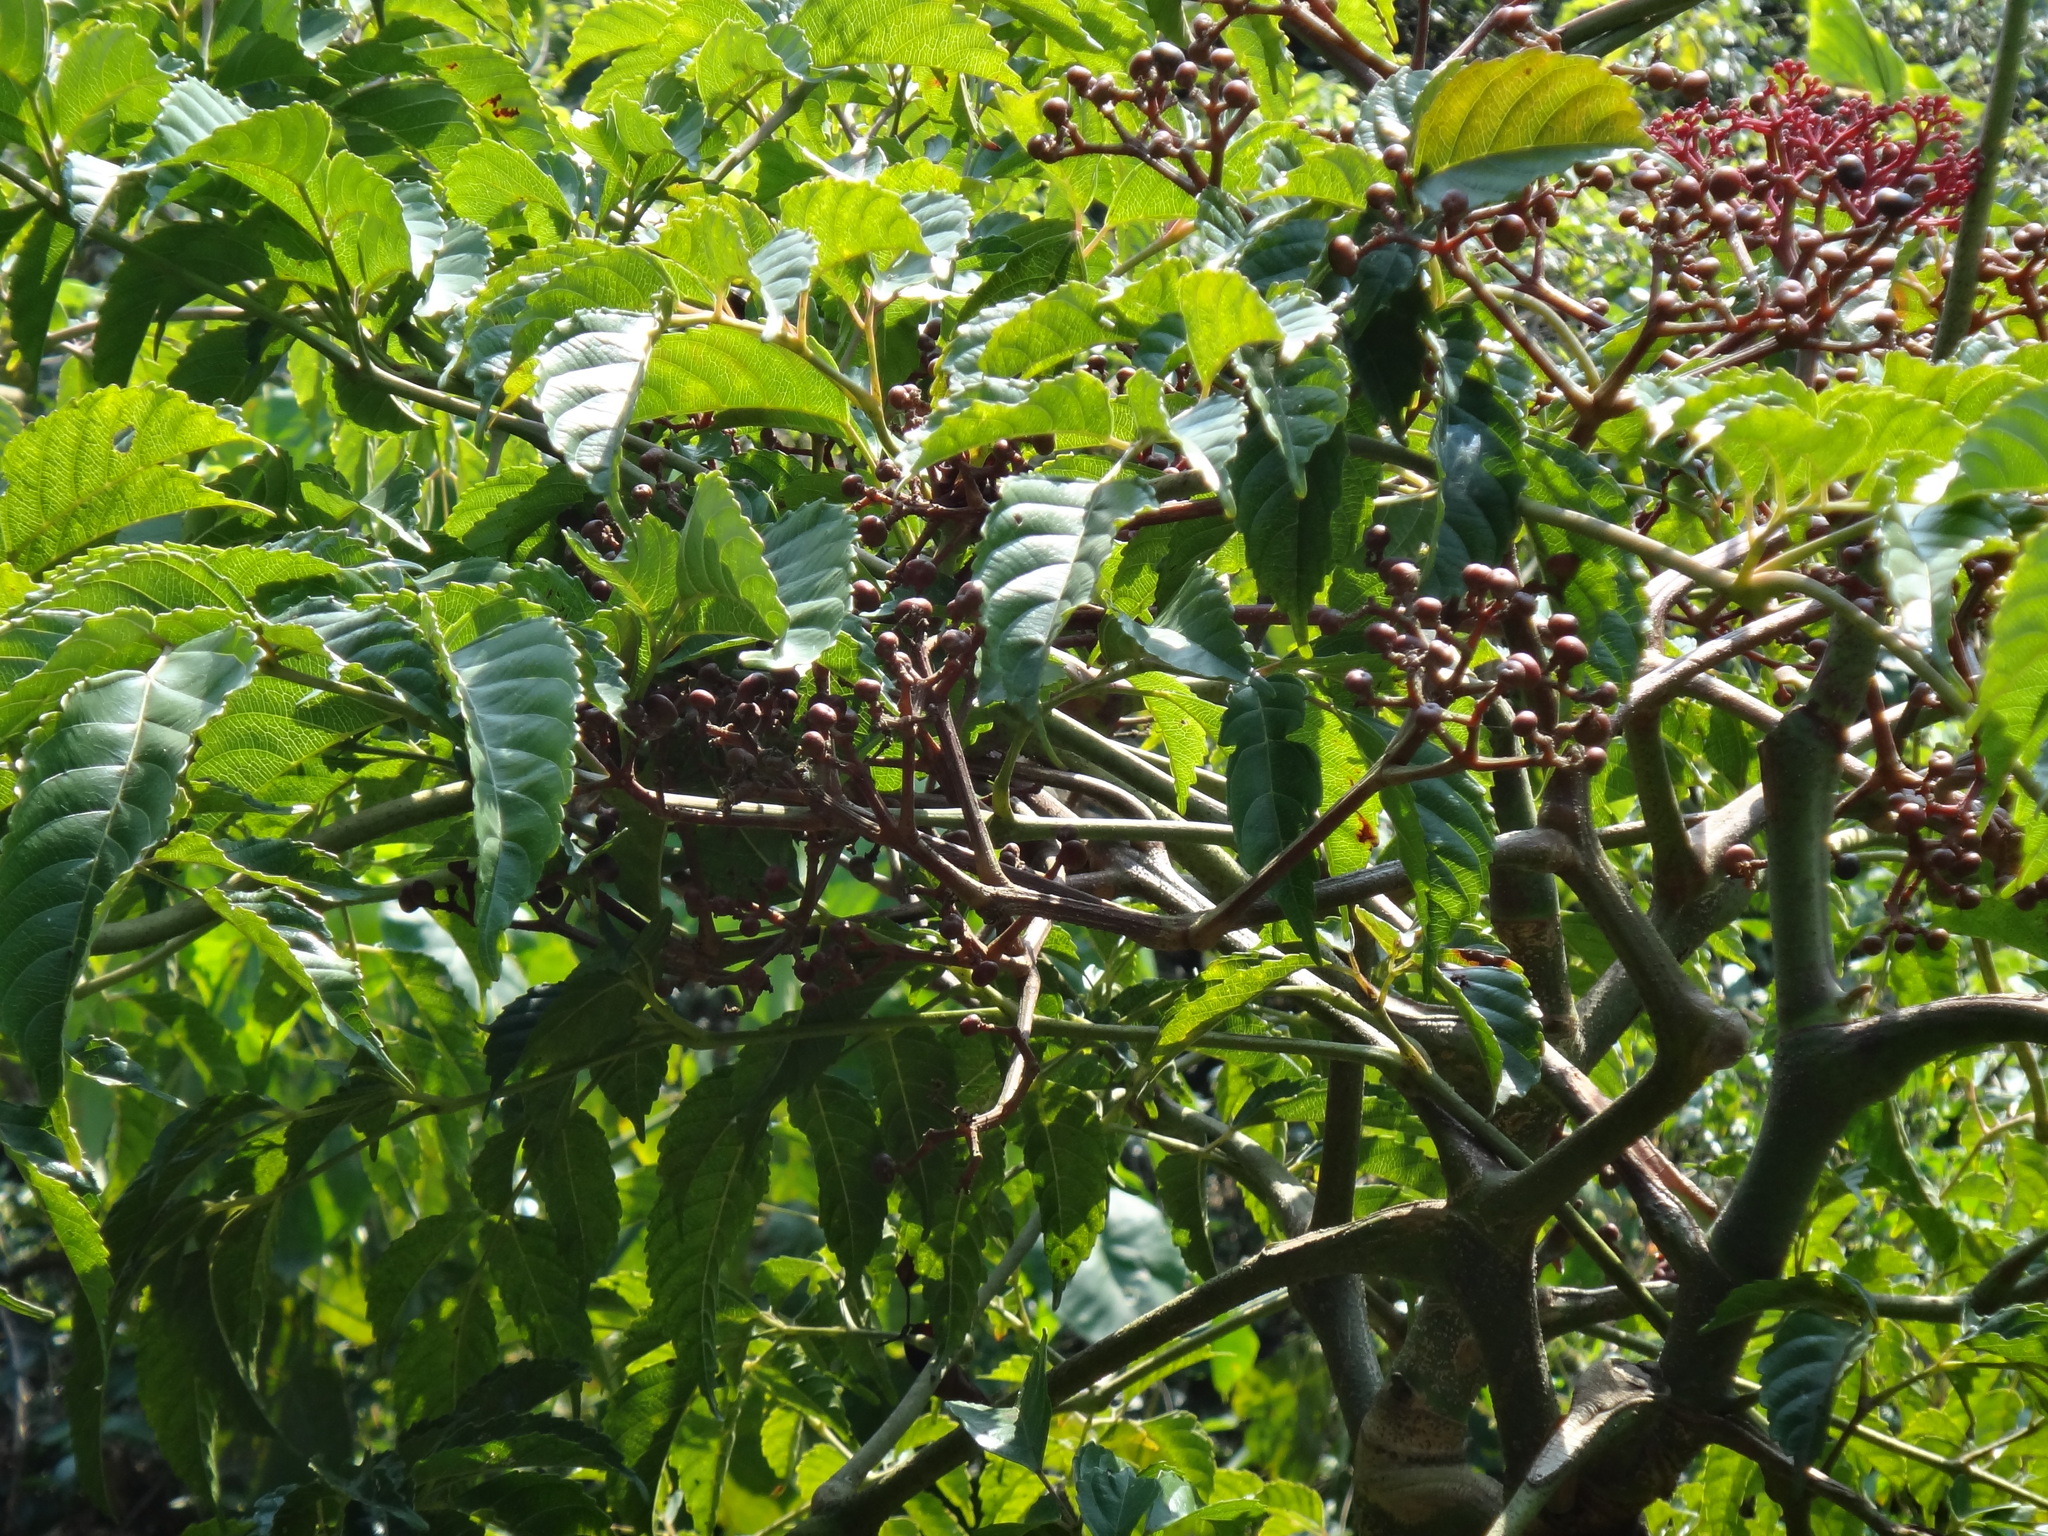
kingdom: Plantae
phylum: Tracheophyta
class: Magnoliopsida
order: Vitales
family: Vitaceae
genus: Leea
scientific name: Leea guineensis
